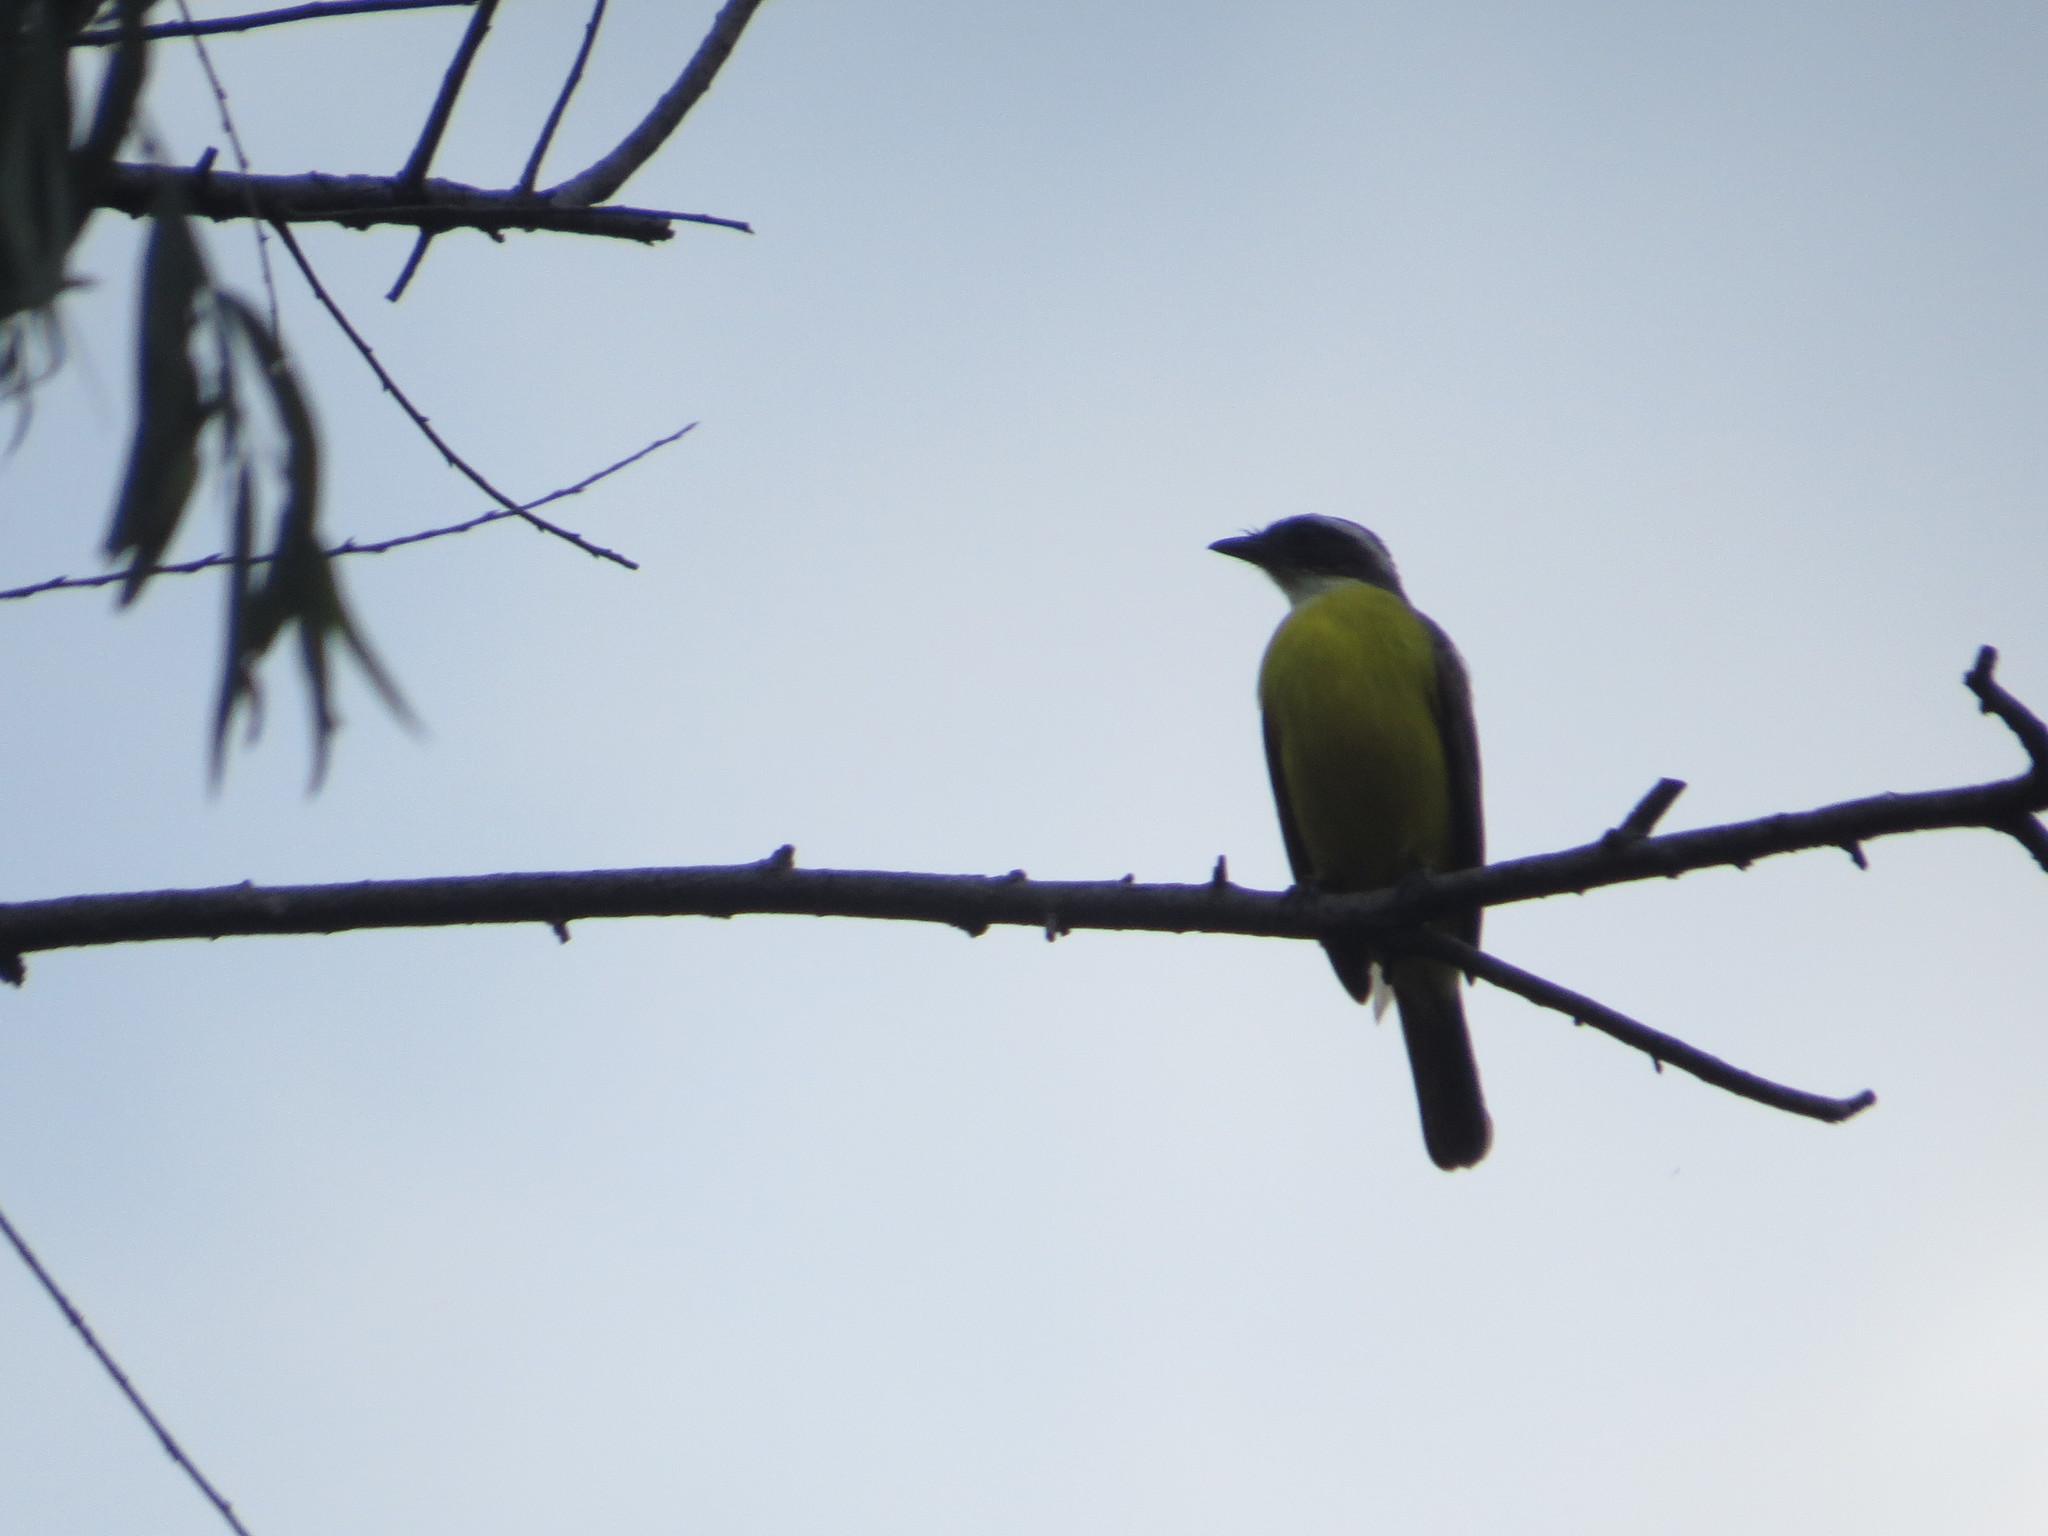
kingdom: Animalia
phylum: Chordata
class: Aves
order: Passeriformes
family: Tyrannidae
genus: Myiozetetes
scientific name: Myiozetetes similis
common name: Social flycatcher
